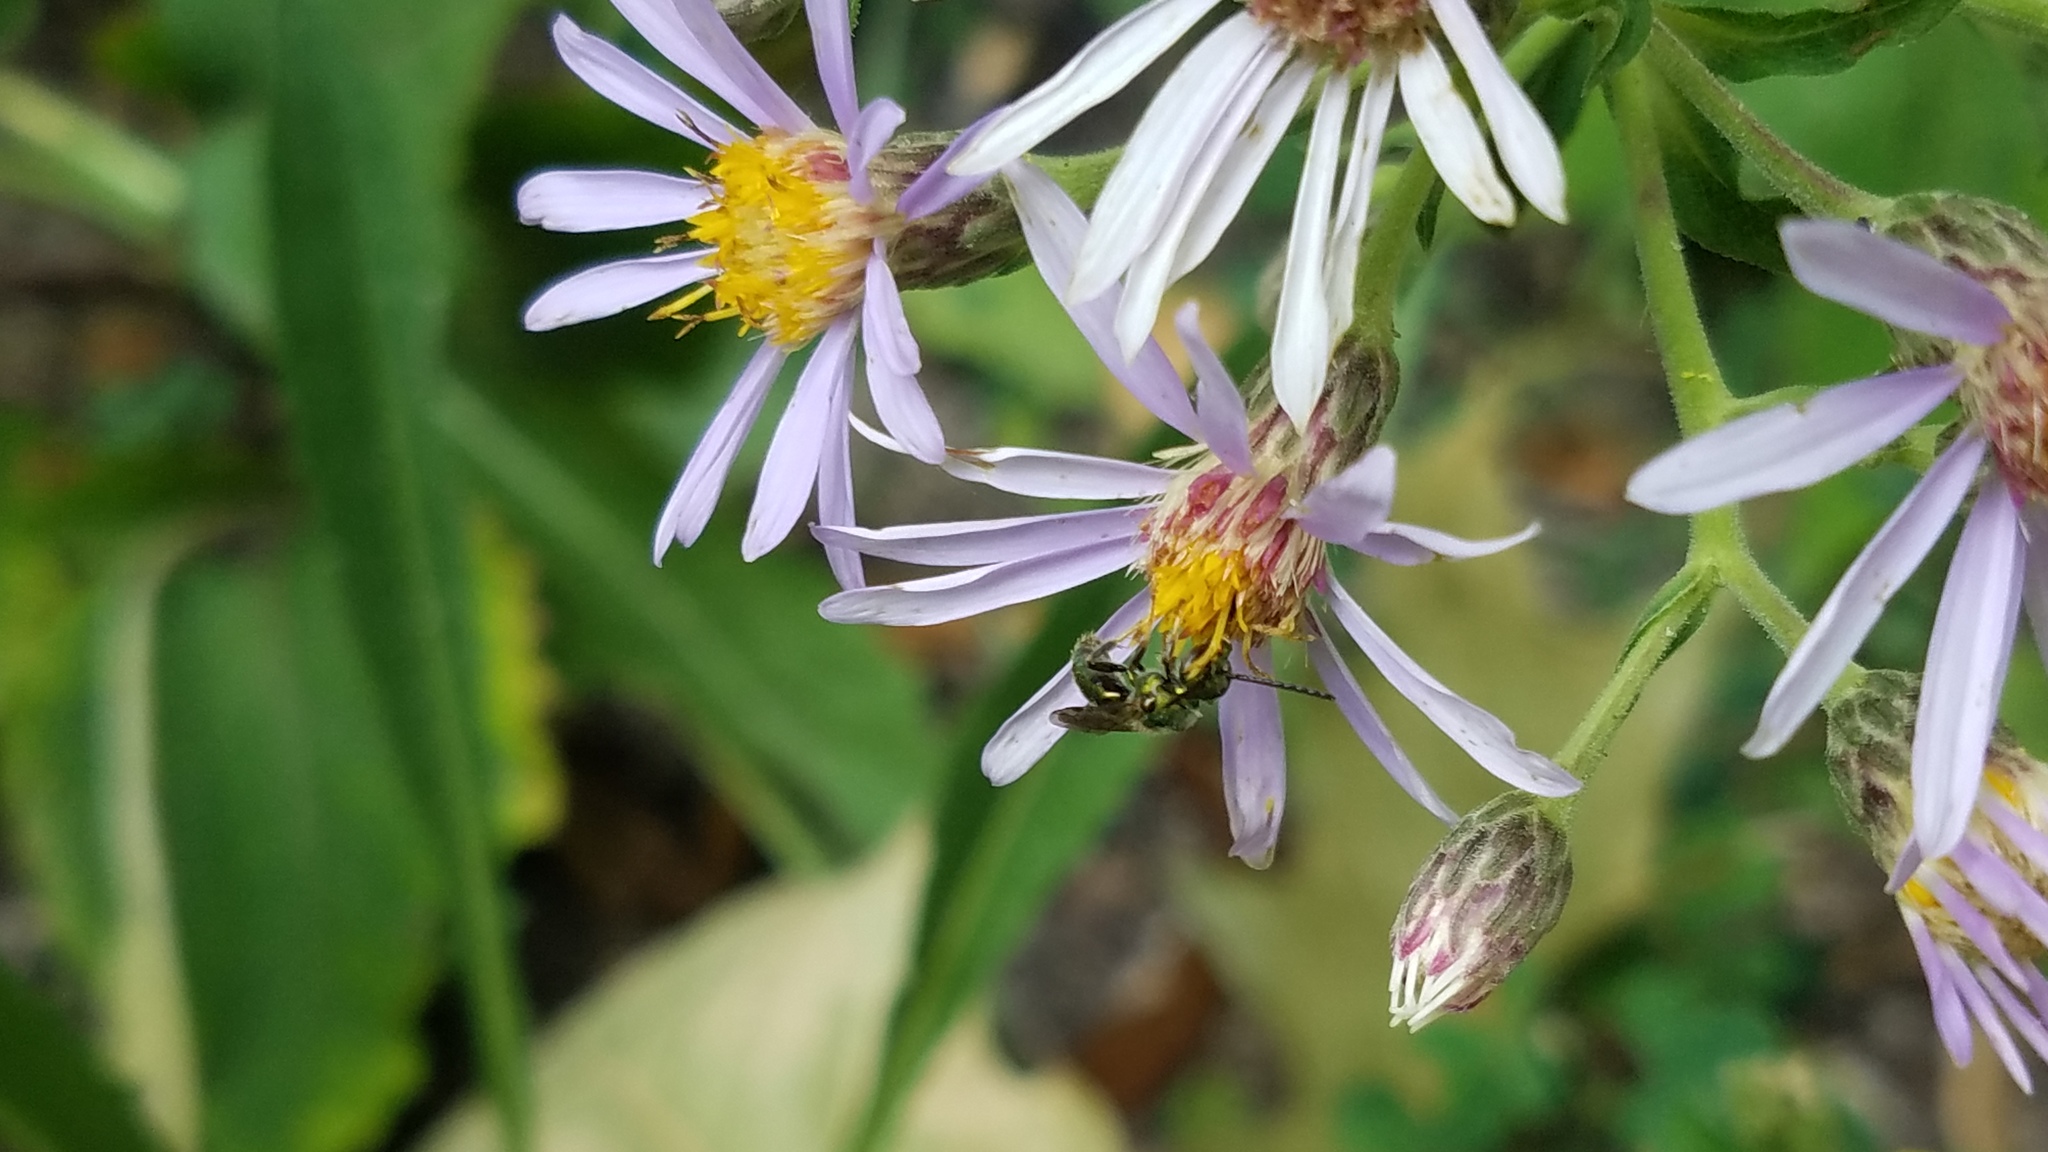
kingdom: Plantae
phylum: Tracheophyta
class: Magnoliopsida
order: Asterales
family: Asteraceae
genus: Eurybia
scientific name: Eurybia macrophylla
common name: Big-leaved aster
